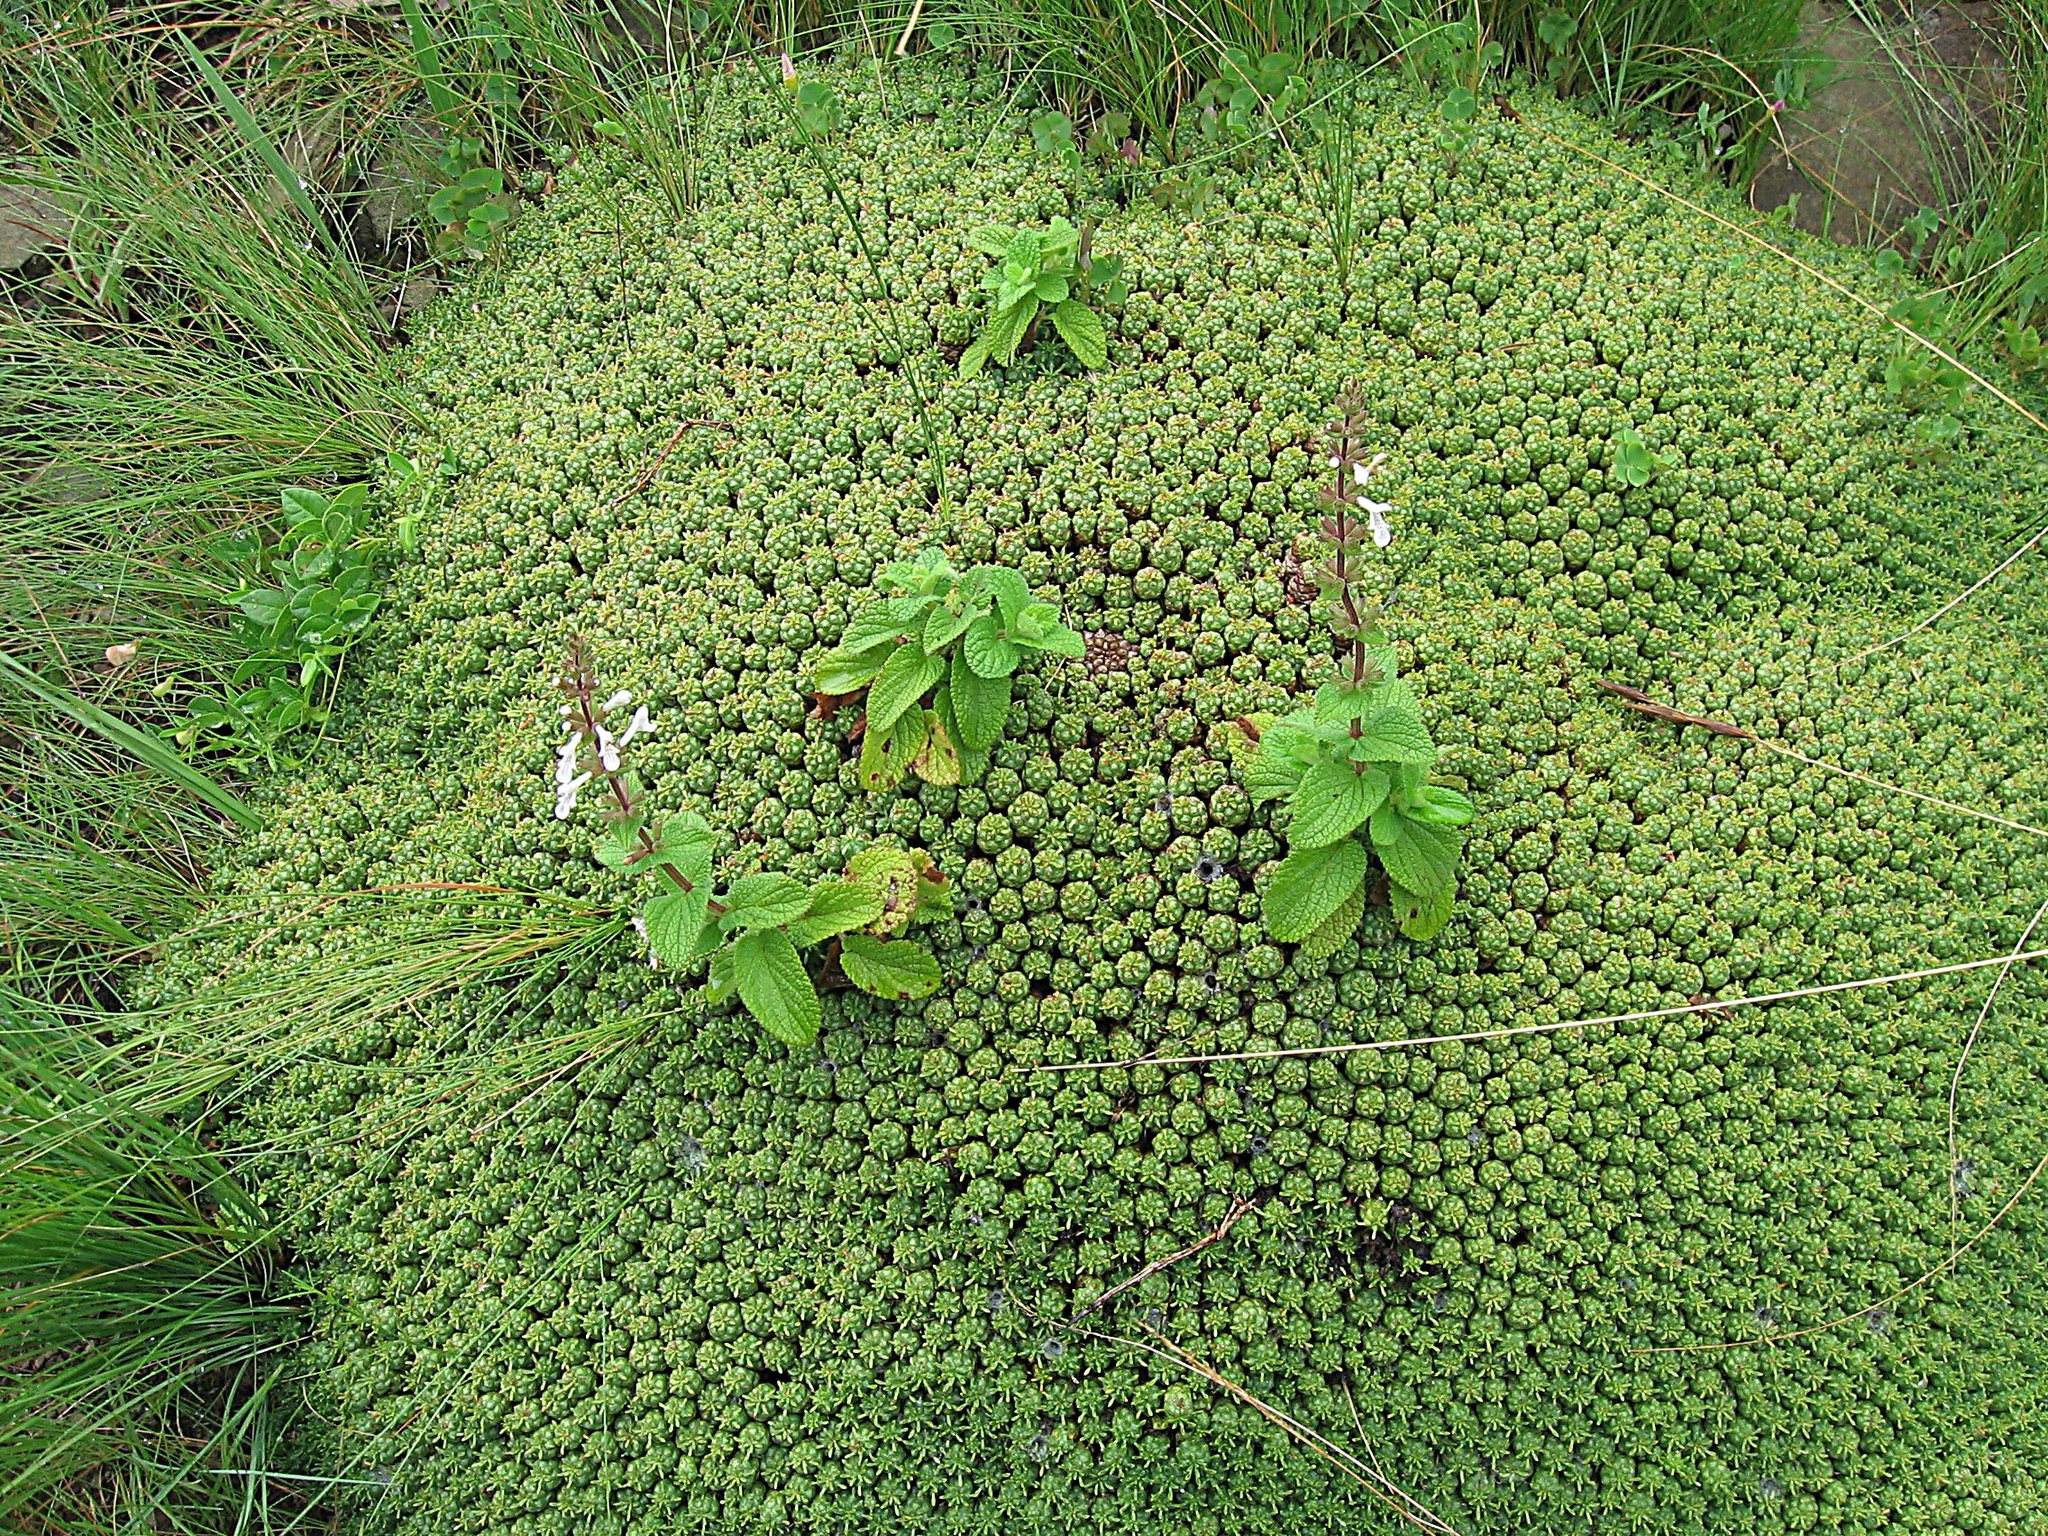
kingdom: Plantae
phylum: Tracheophyta
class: Magnoliopsida
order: Malpighiales
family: Euphorbiaceae
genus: Euphorbia
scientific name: Euphorbia clavarioides
